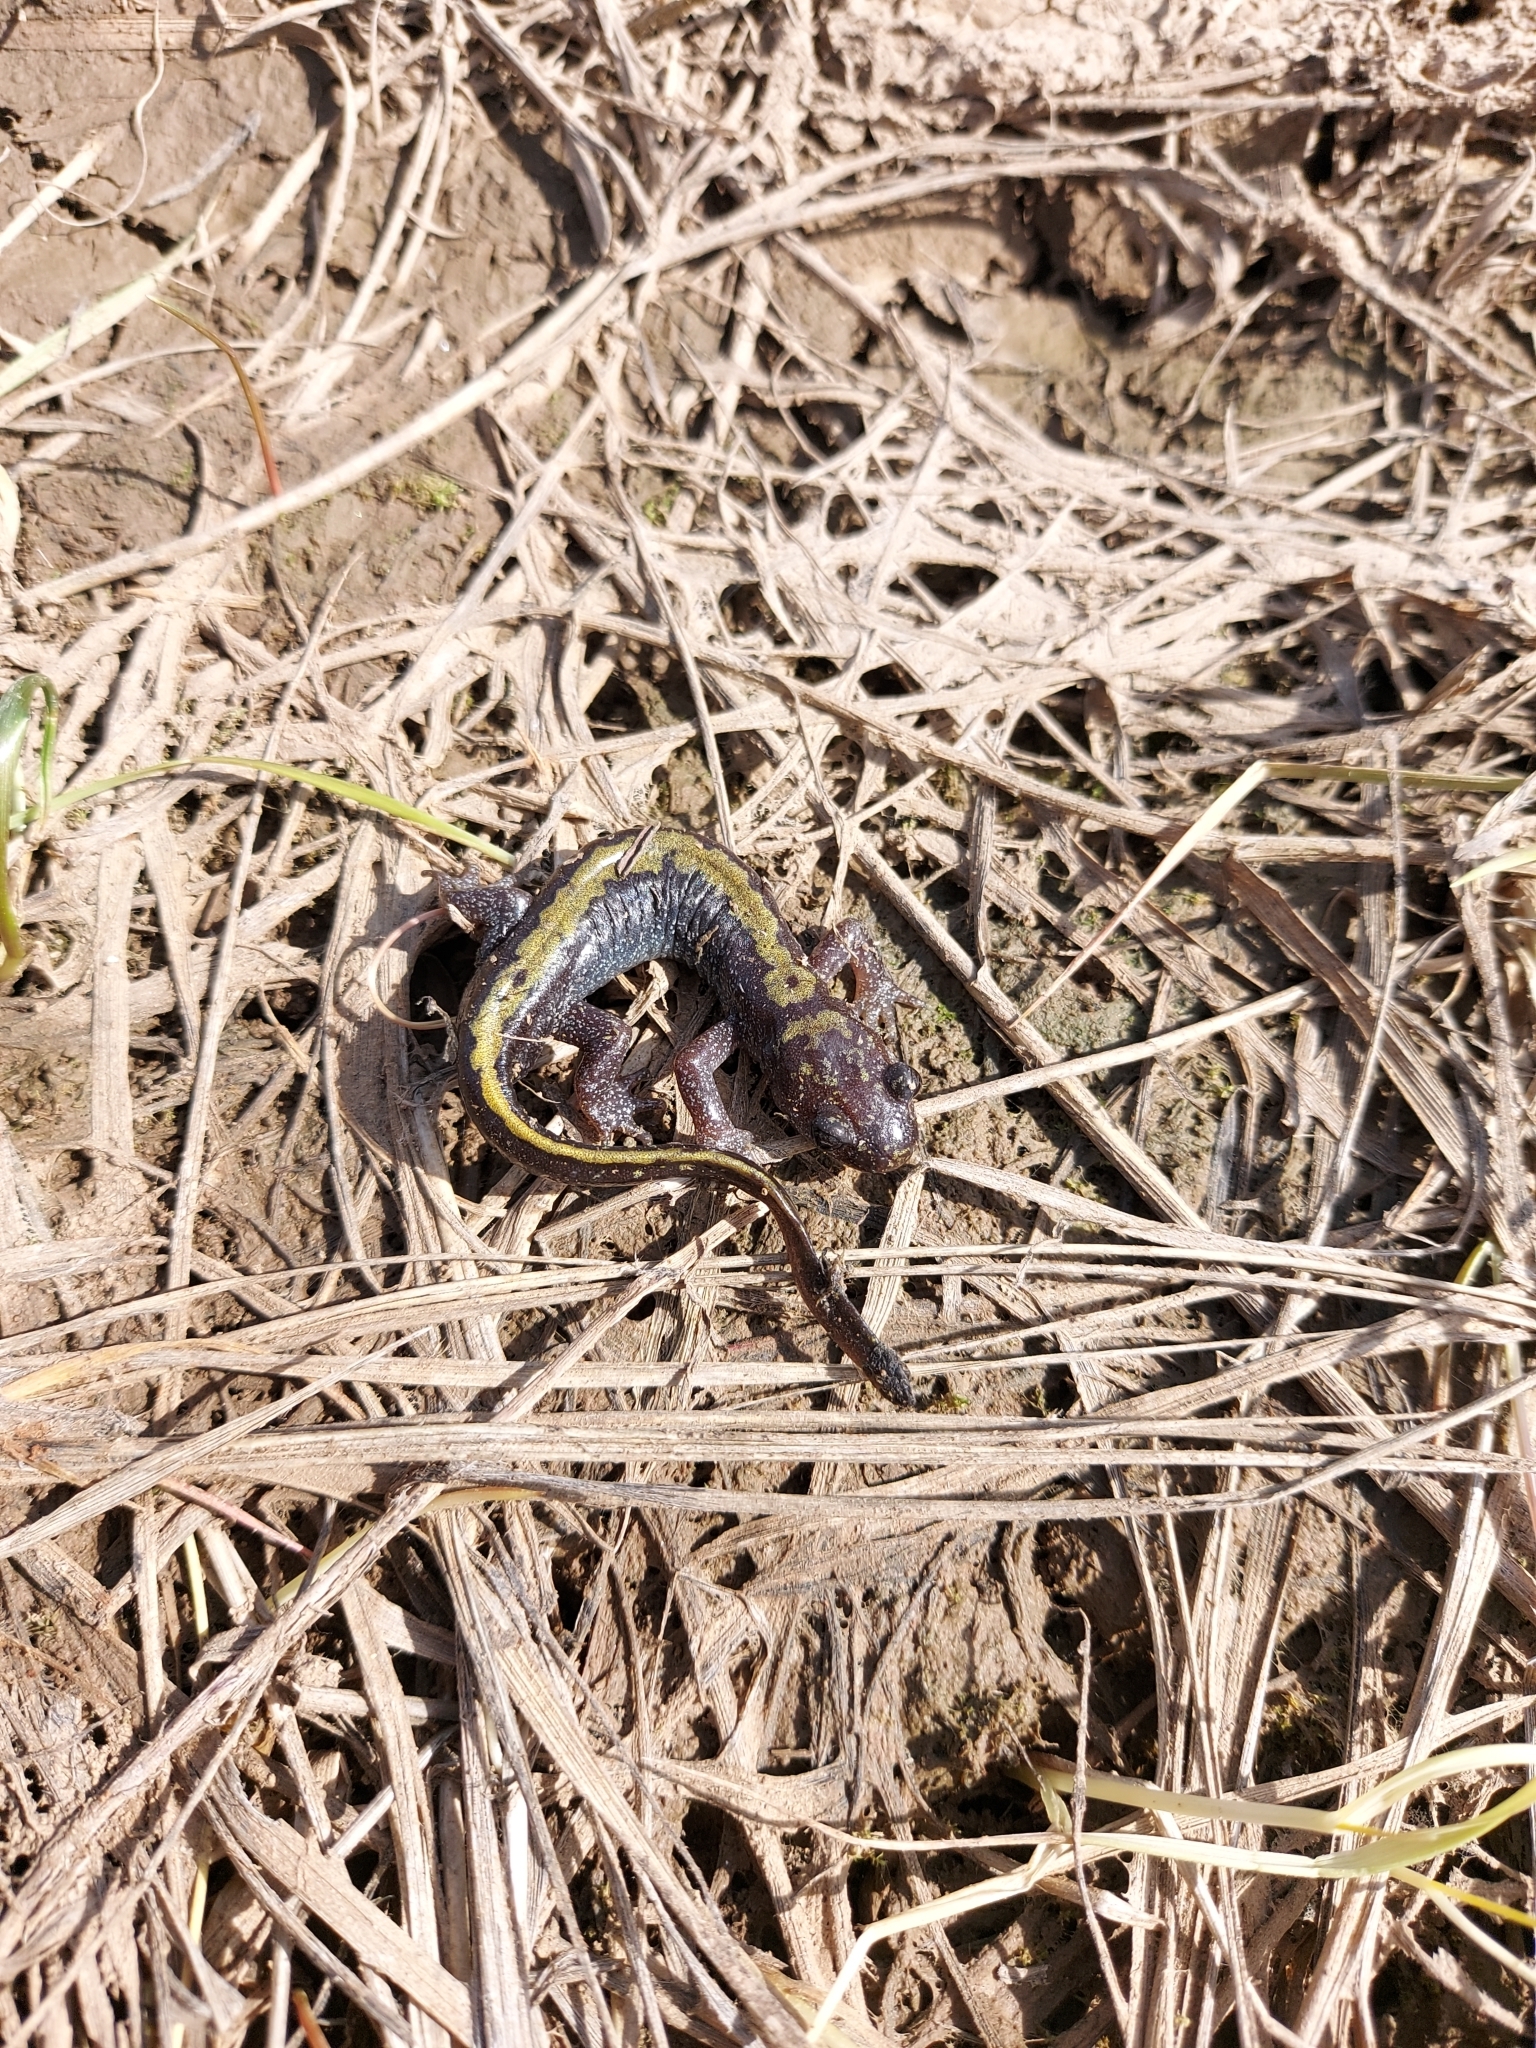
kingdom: Animalia
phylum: Chordata
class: Amphibia
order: Caudata
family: Ambystomatidae
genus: Ambystoma
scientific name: Ambystoma macrodactylum
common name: Long-toed salamander
